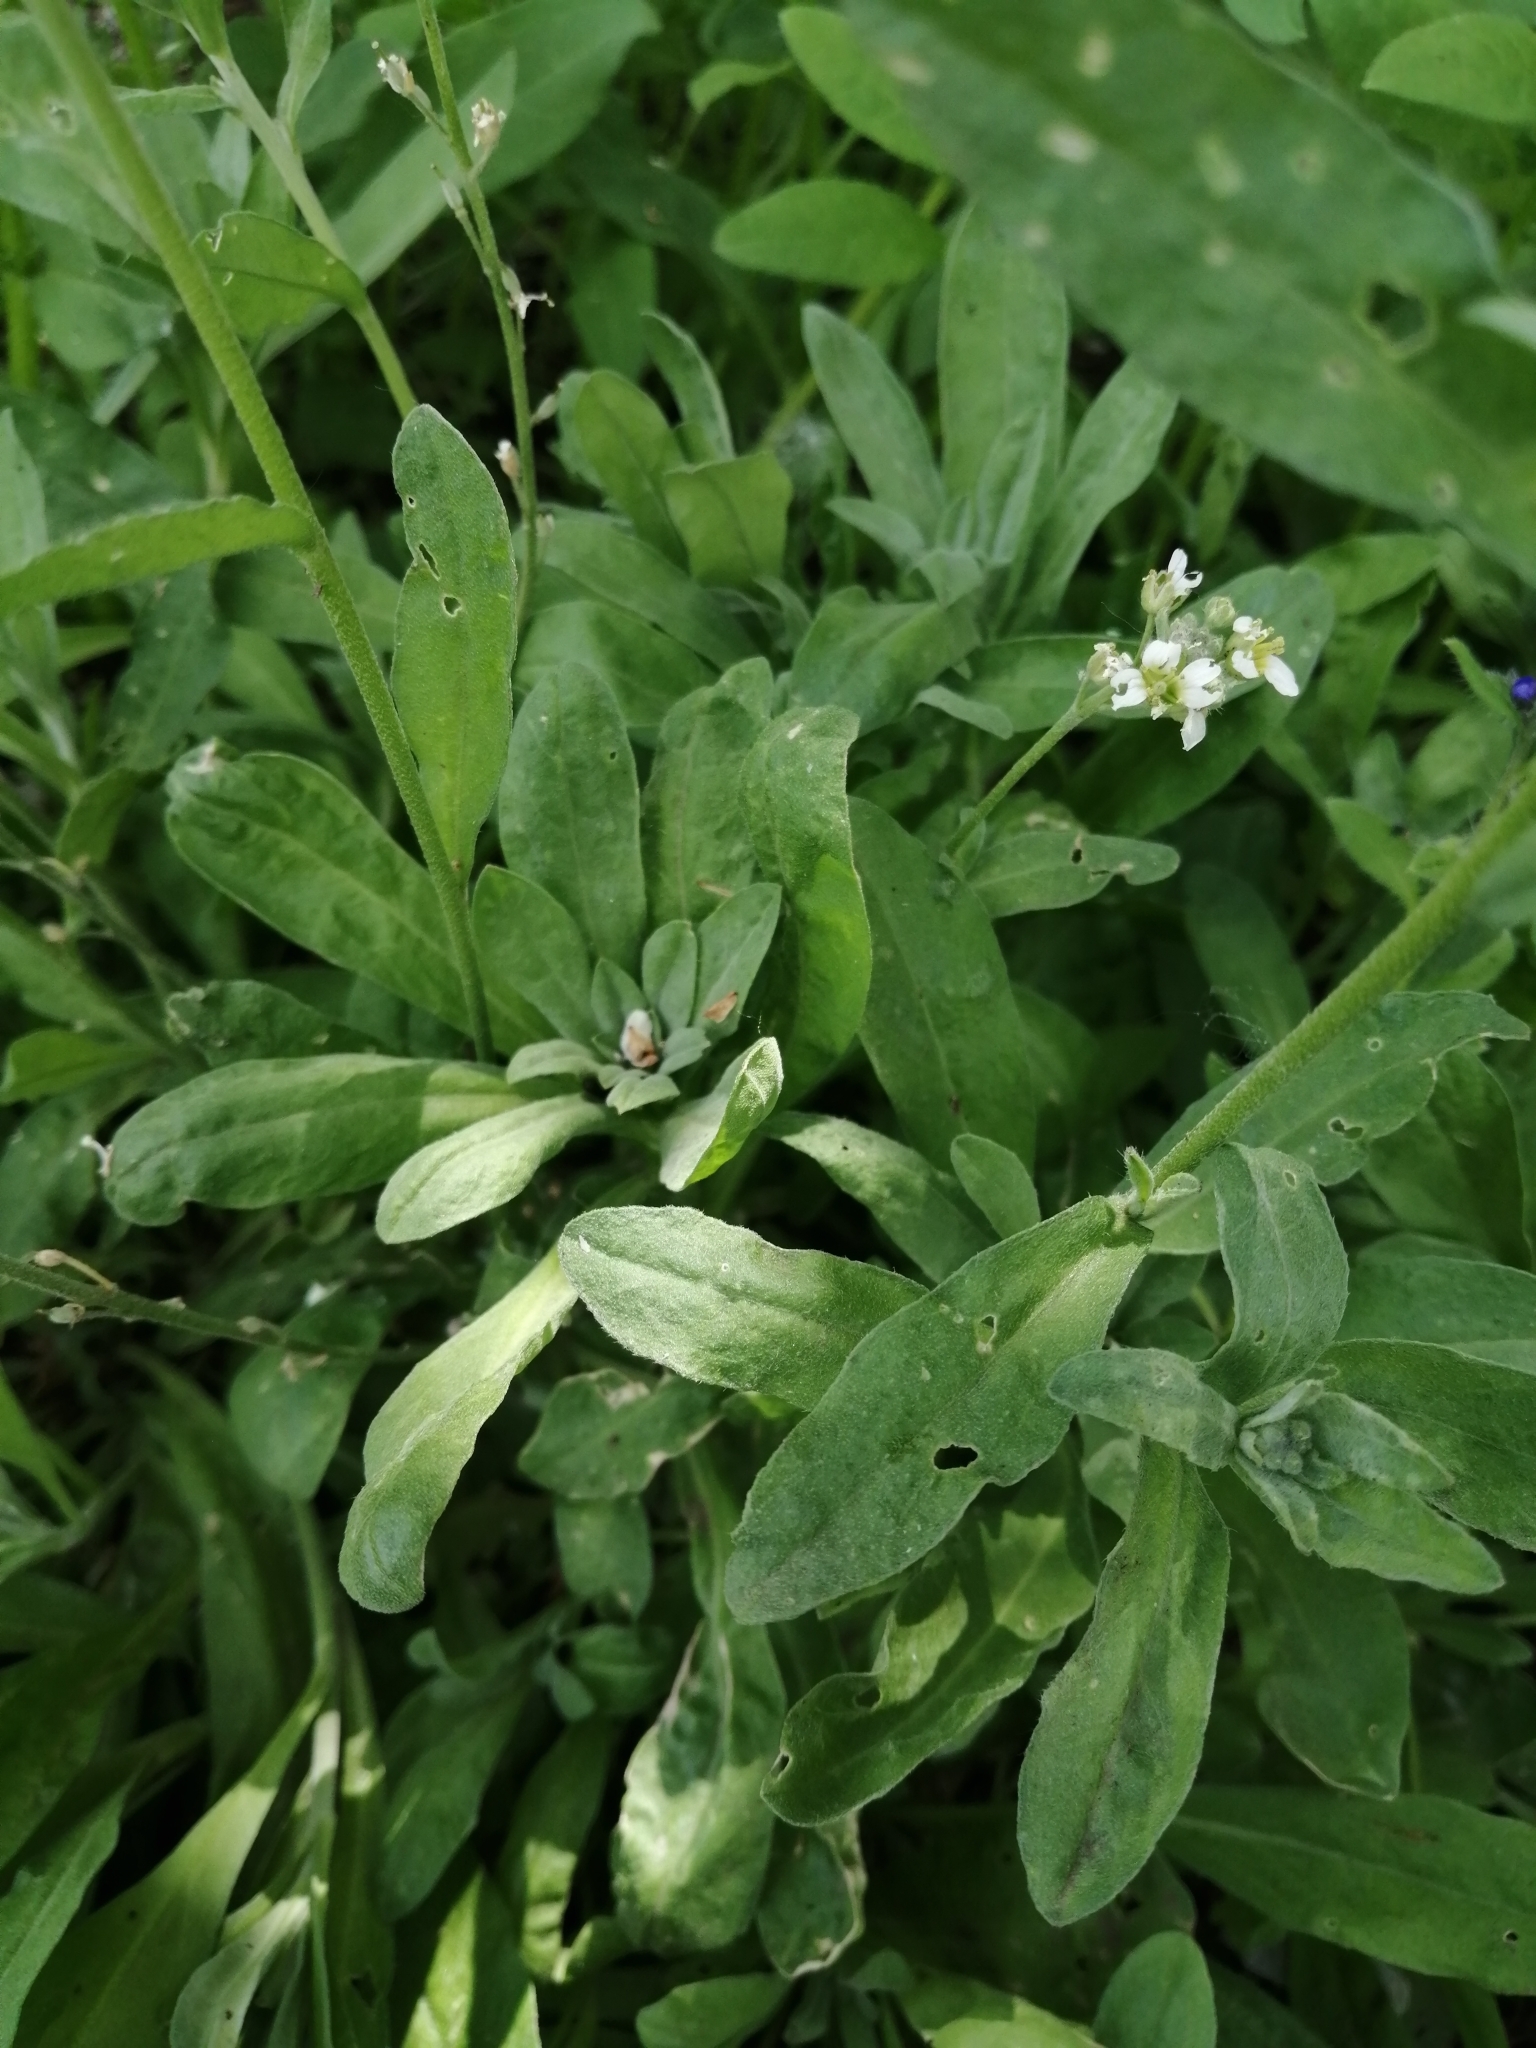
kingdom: Plantae
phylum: Tracheophyta
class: Magnoliopsida
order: Brassicales
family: Brassicaceae
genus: Berteroa
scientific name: Berteroa incana
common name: Hoary alison
